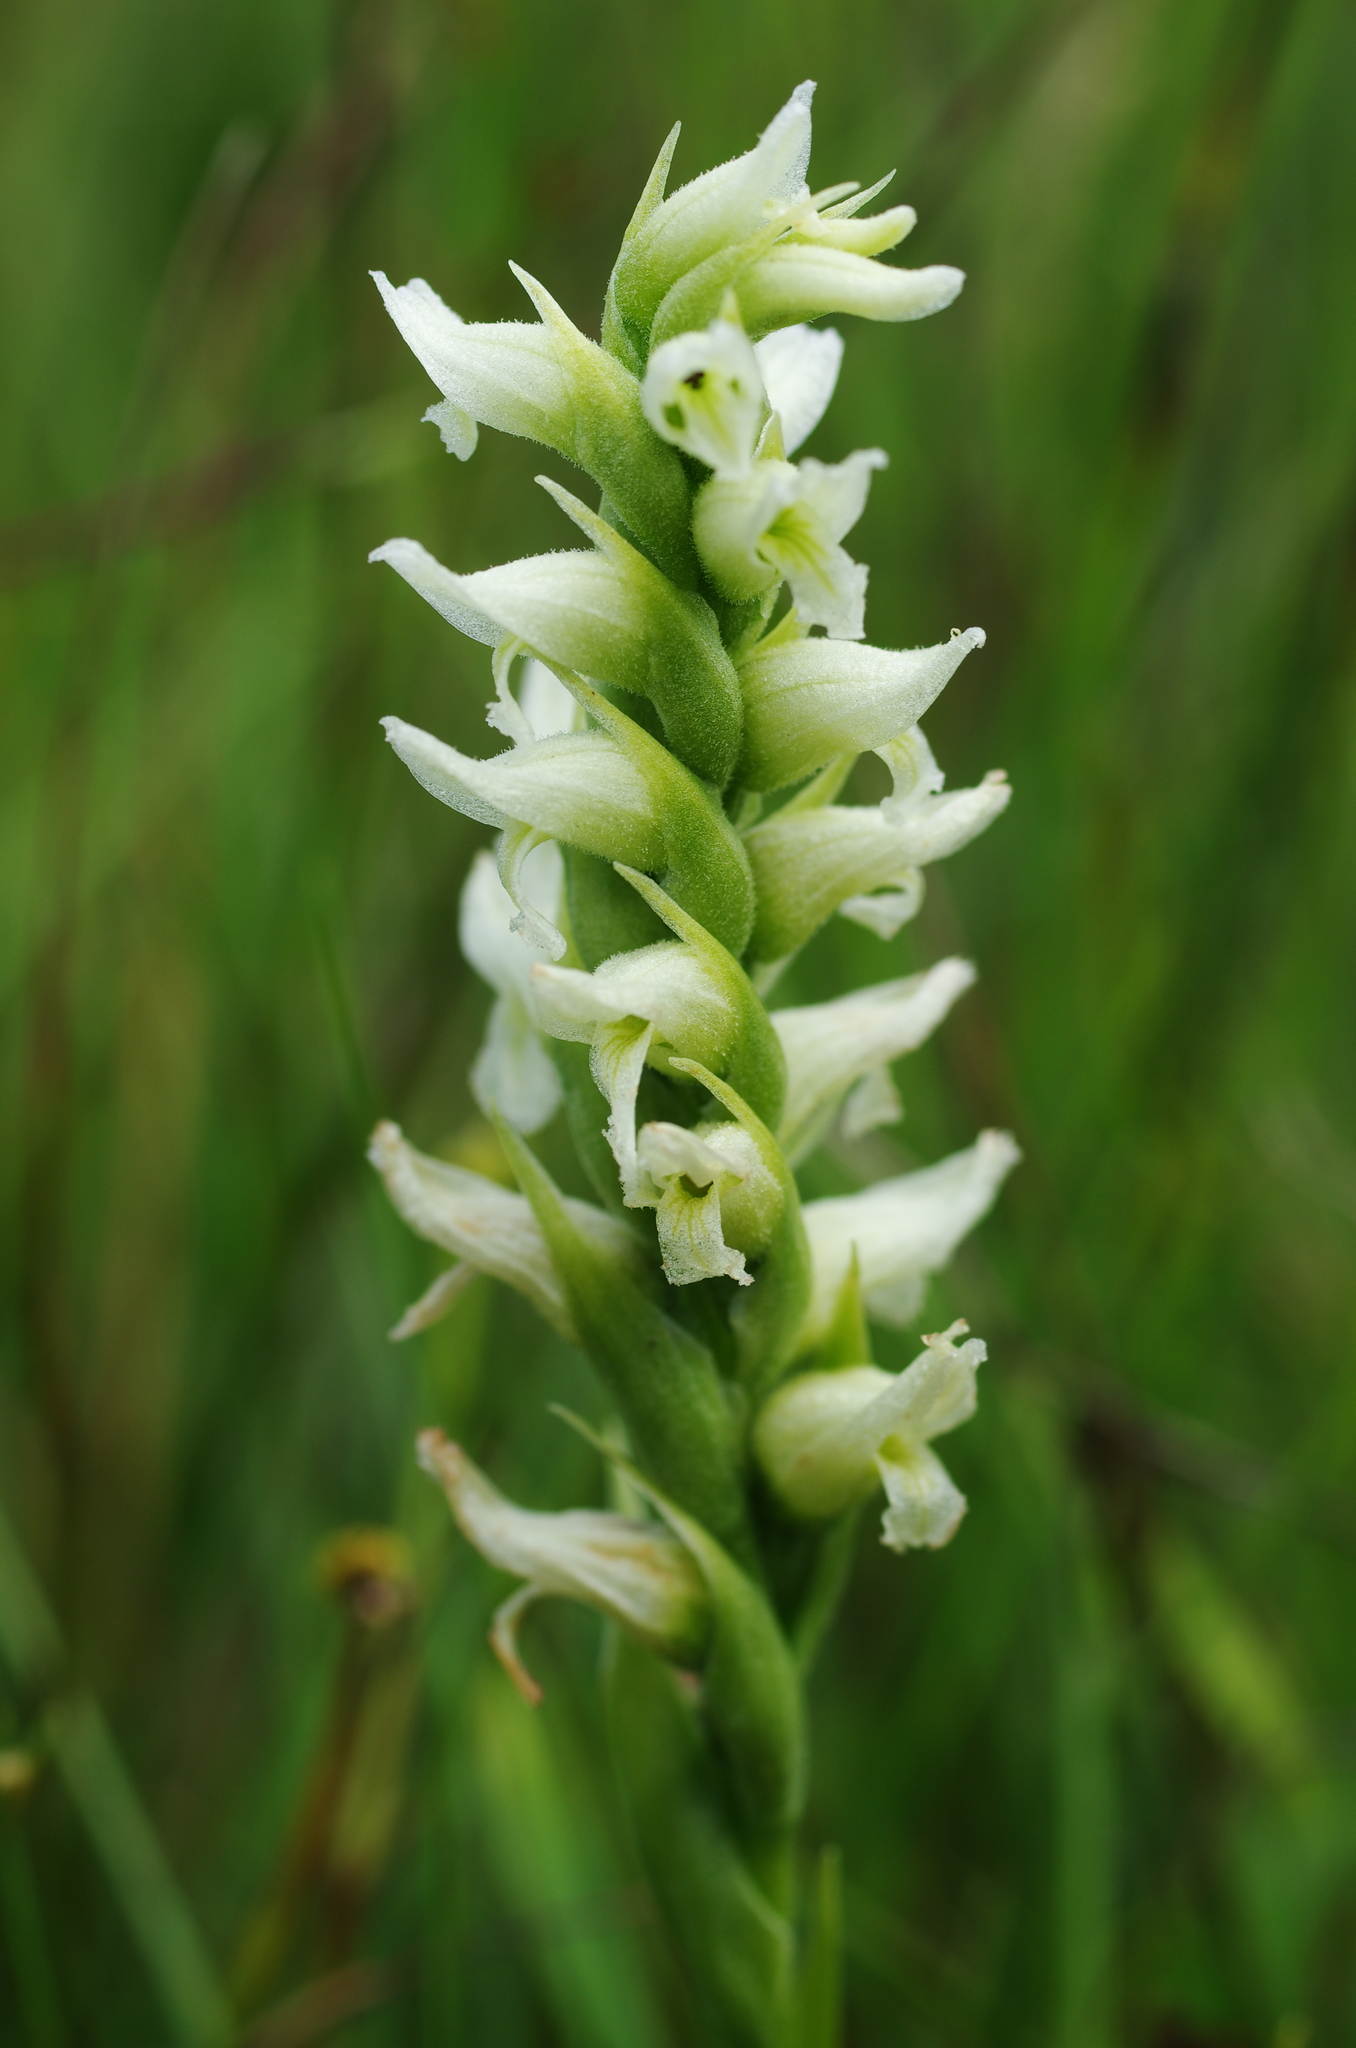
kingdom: Plantae
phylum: Tracheophyta
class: Liliopsida
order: Asparagales
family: Orchidaceae
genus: Spiranthes
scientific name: Spiranthes romanzoffiana
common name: Irish lady's-tresses
